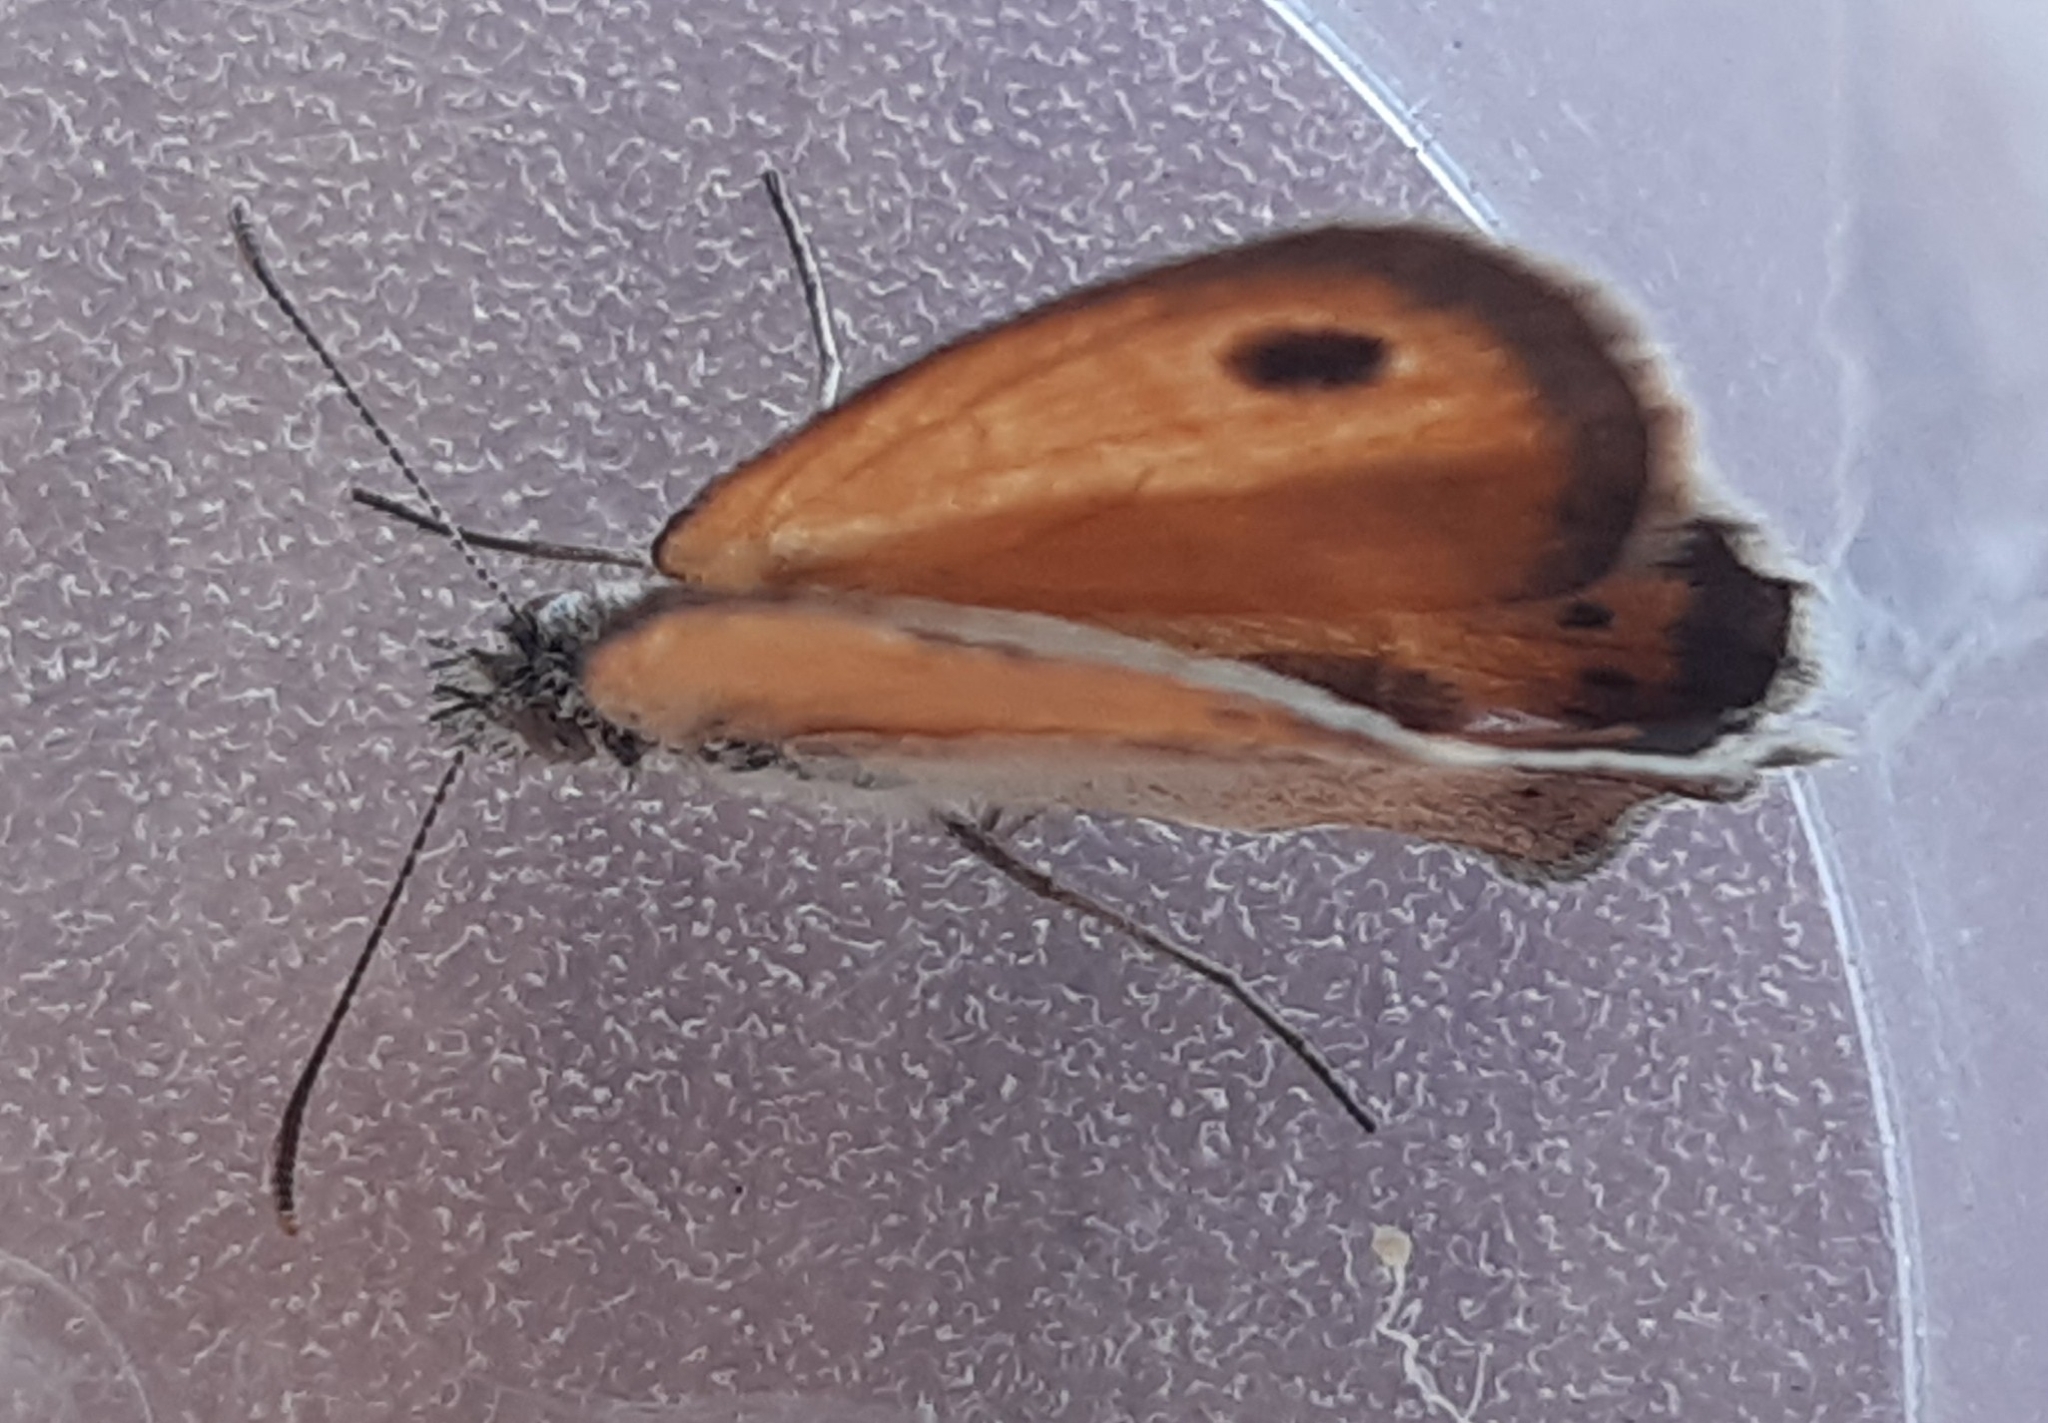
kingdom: Animalia
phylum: Arthropoda
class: Insecta
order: Lepidoptera
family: Nymphalidae
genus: Coenonympha
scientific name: Coenonympha pamphilus
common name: Small heath
